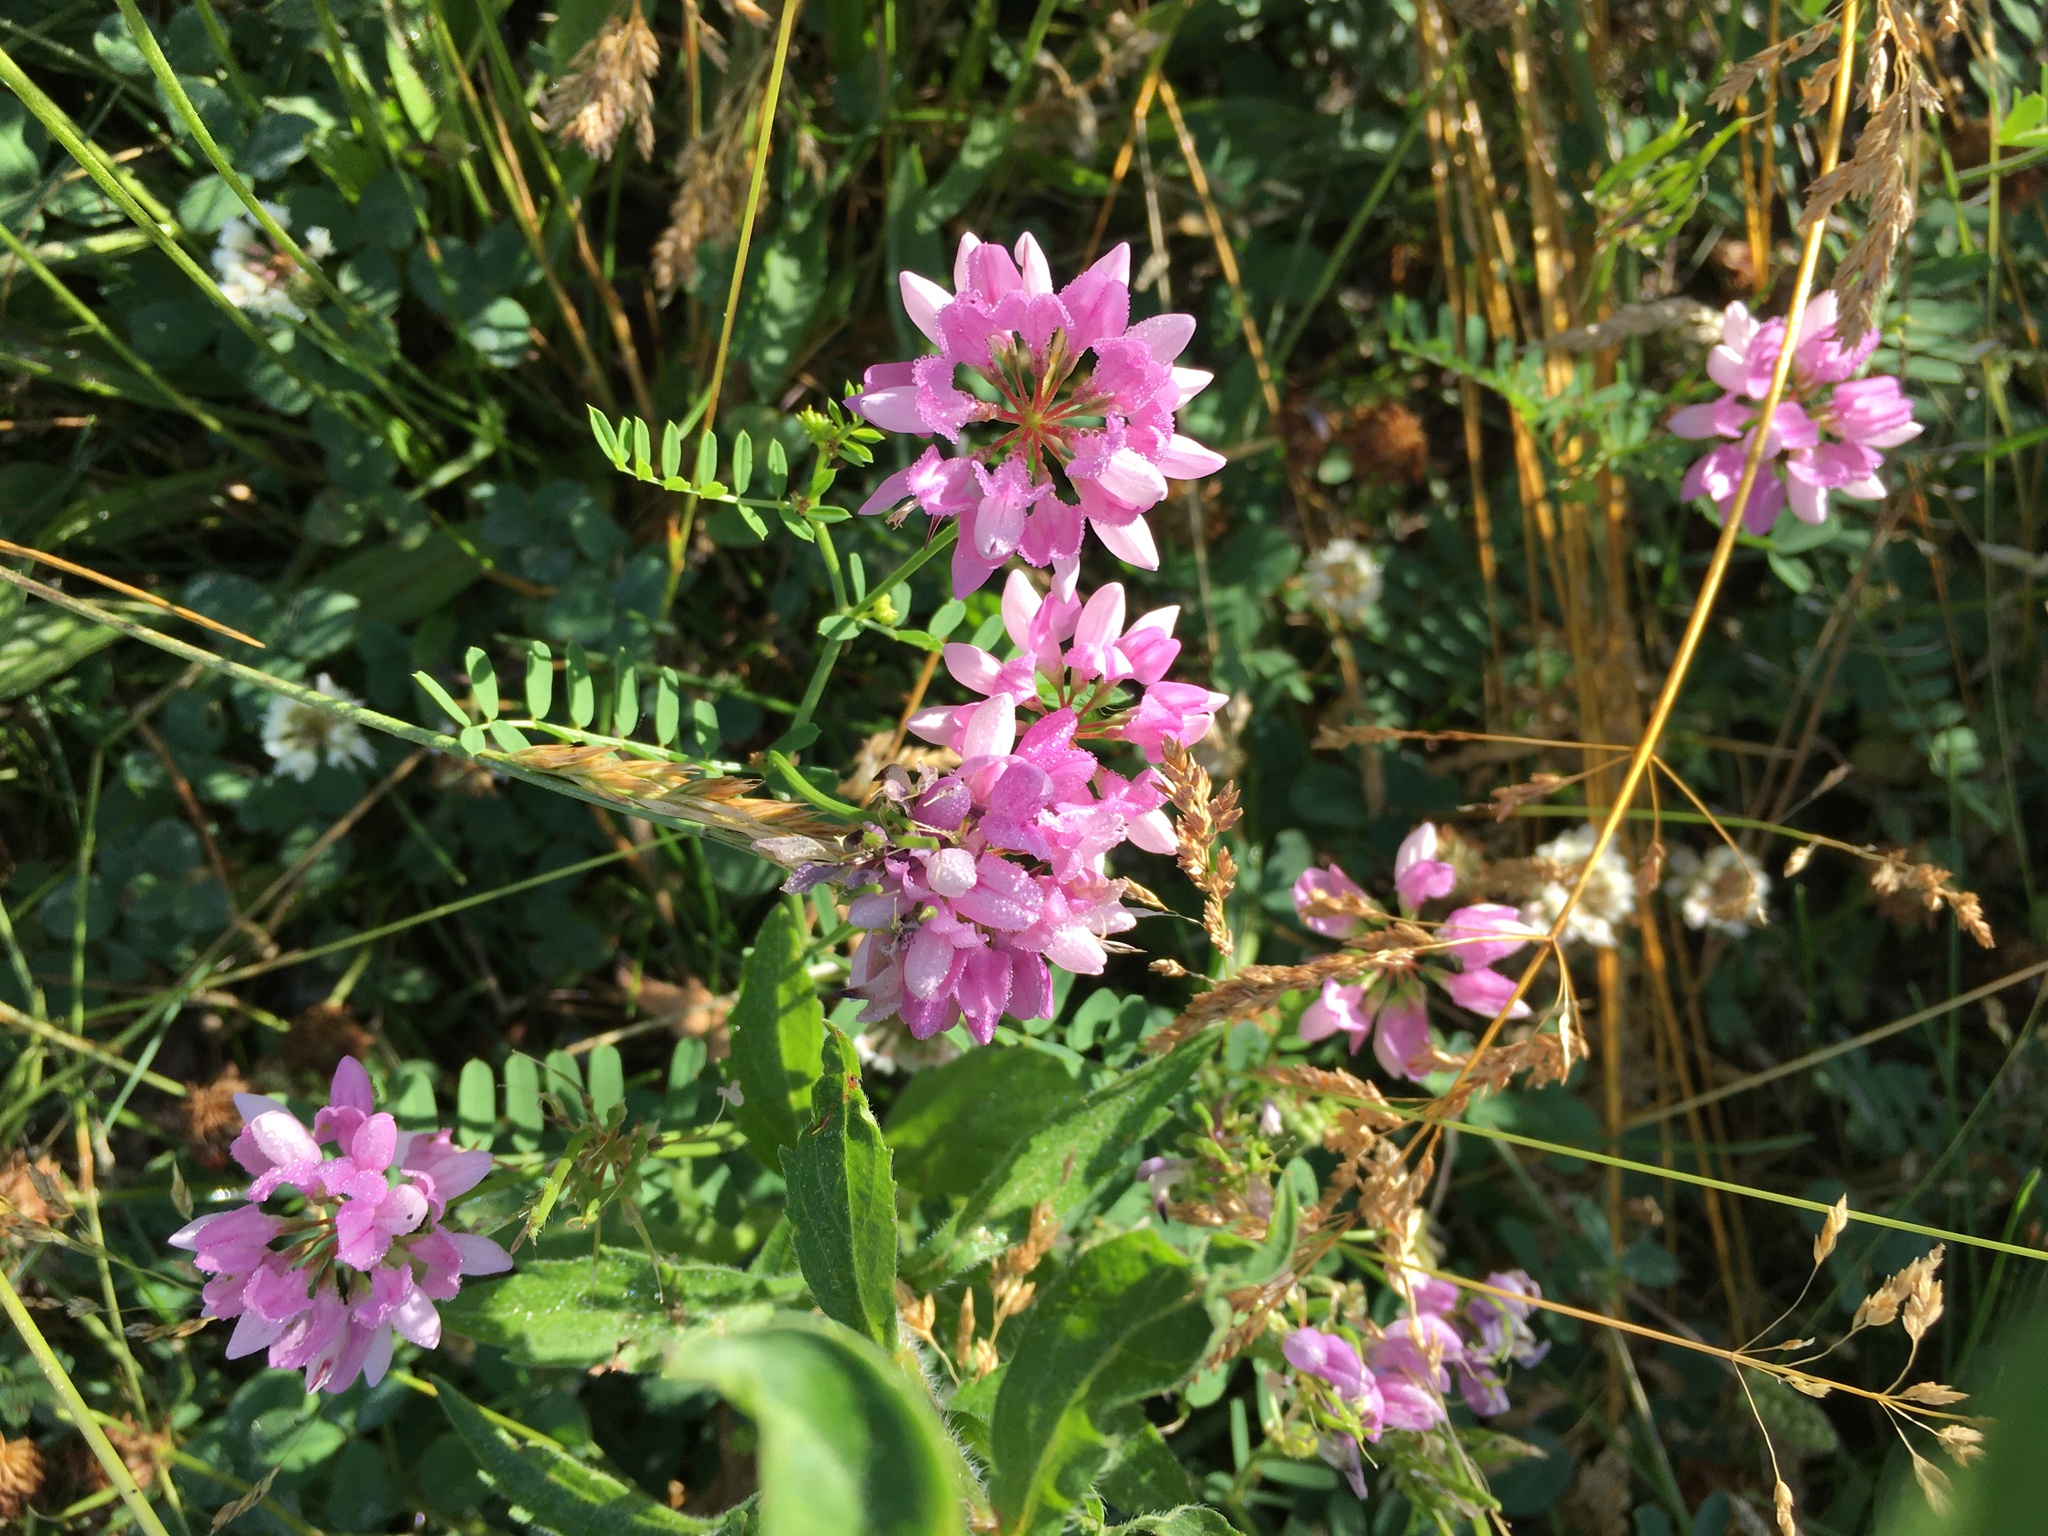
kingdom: Plantae
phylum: Tracheophyta
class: Magnoliopsida
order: Fabales
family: Fabaceae
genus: Coronilla
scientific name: Coronilla varia
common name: Crownvetch
